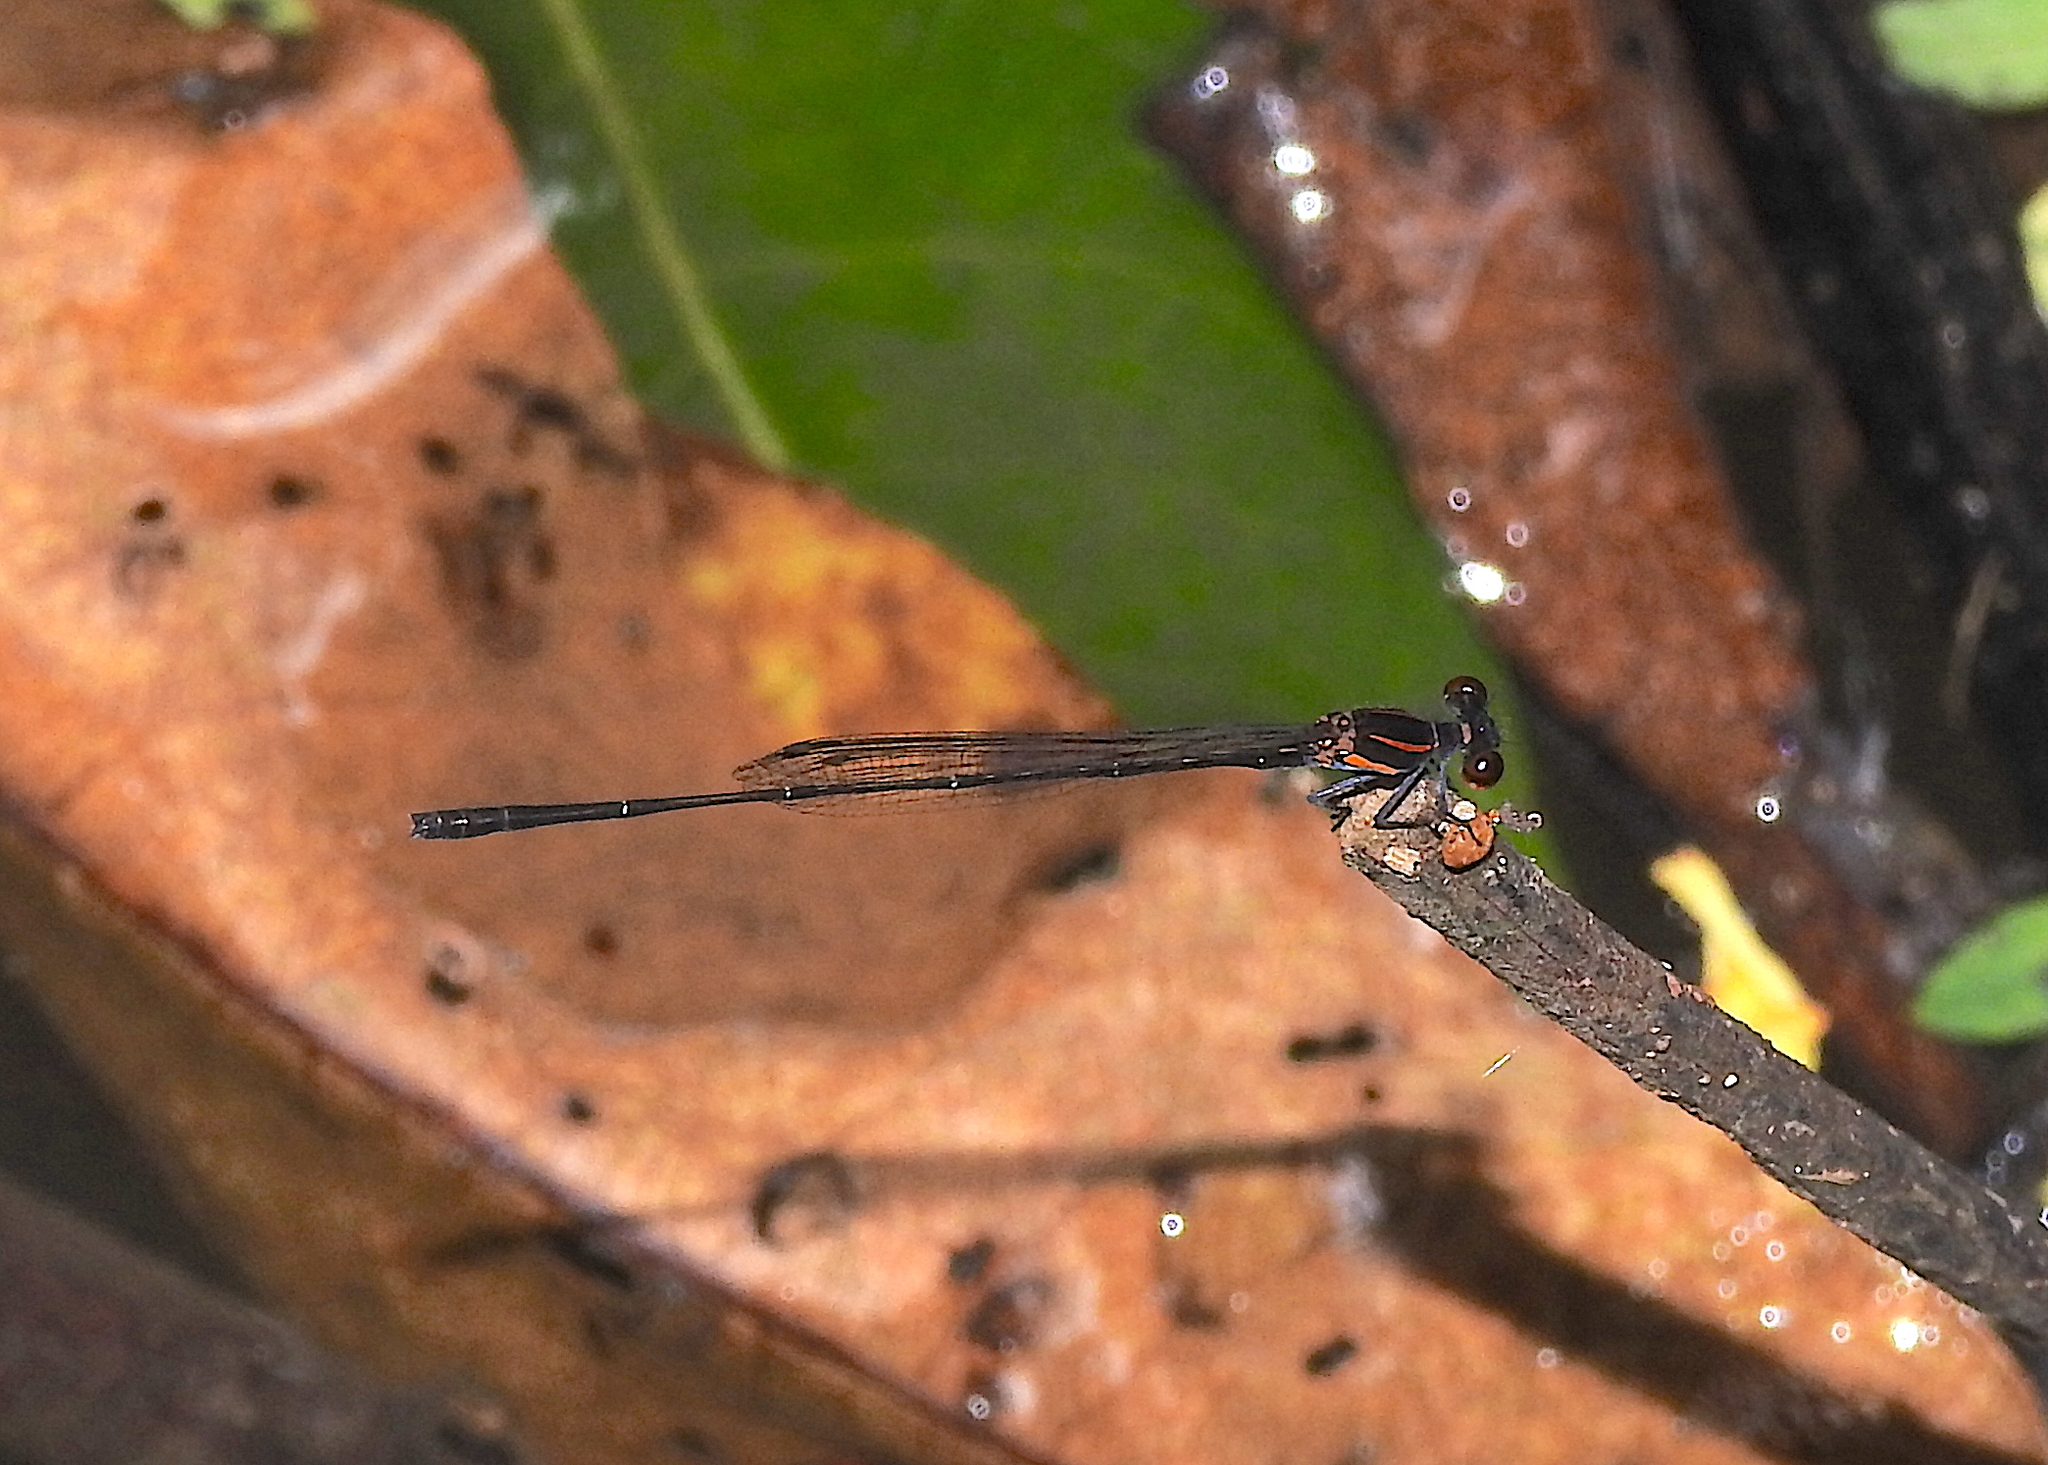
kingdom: Animalia
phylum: Arthropoda
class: Insecta
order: Odonata
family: Platycnemididae
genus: Prodasineura
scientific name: Prodasineura verticalis
